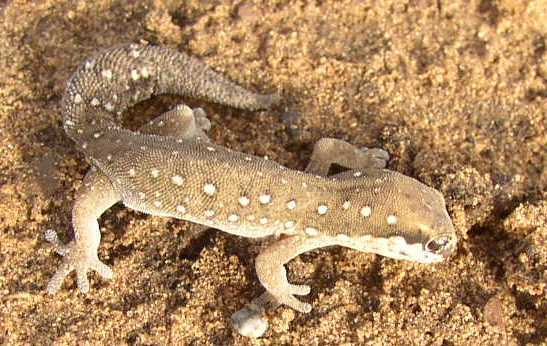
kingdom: Animalia
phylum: Chordata
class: Squamata
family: Gekkonidae
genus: Pachydactylus
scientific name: Pachydactylus geitje
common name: Ocellated thick-toed gecko
